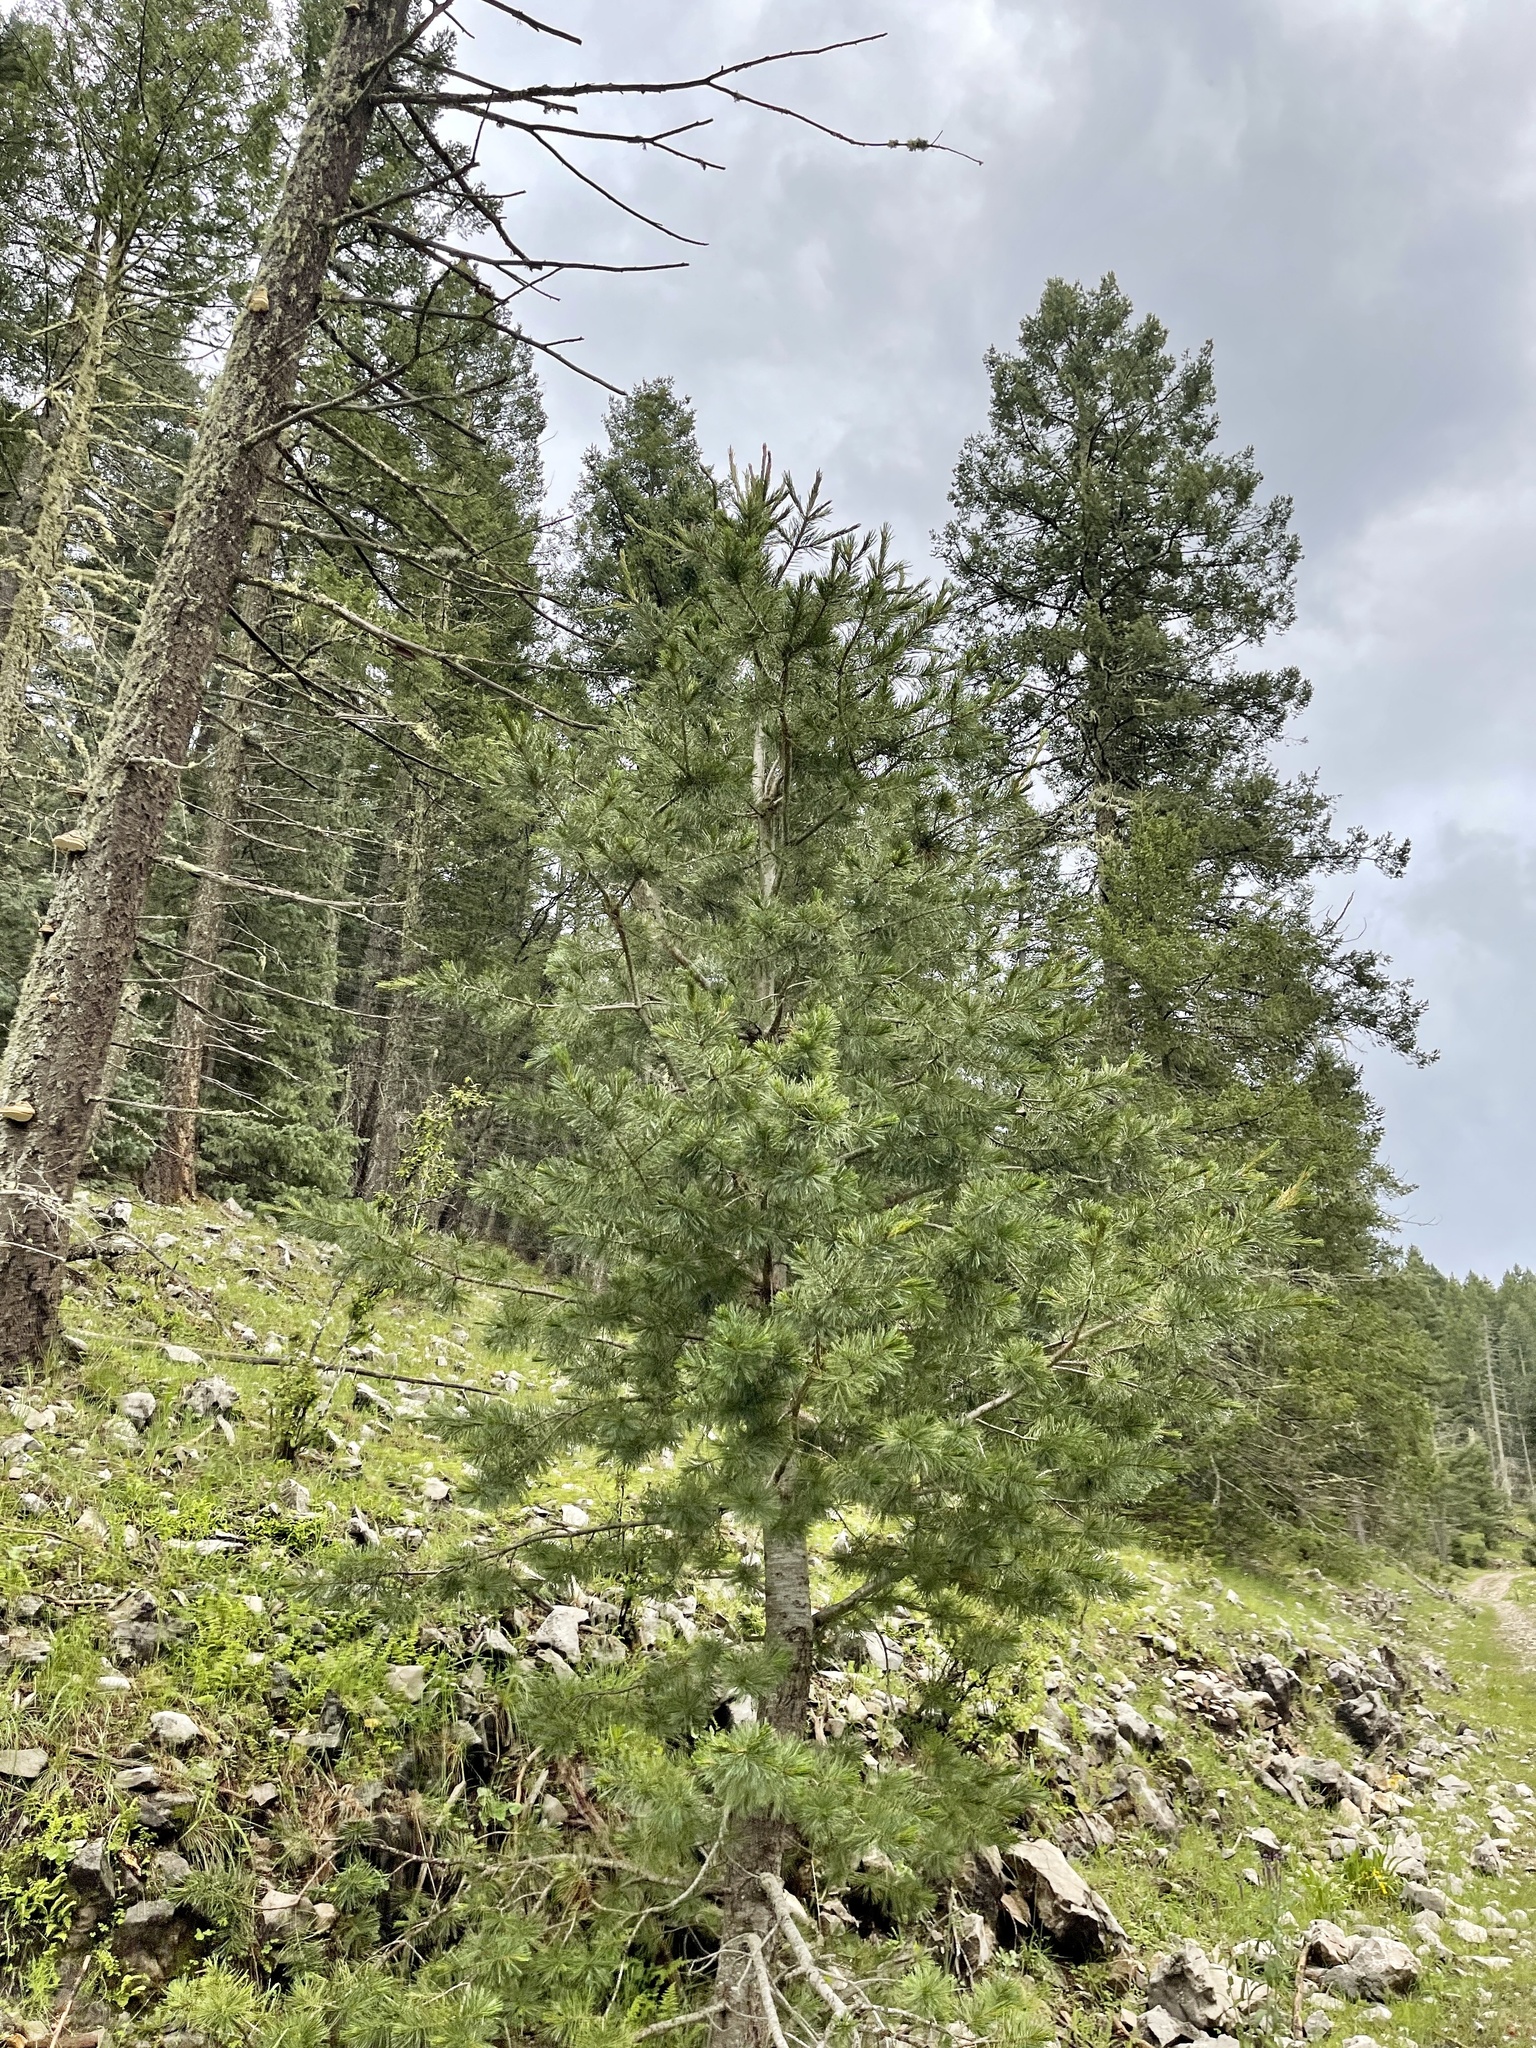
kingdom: Plantae
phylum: Tracheophyta
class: Pinopsida
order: Pinales
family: Pinaceae
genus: Pinus
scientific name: Pinus strobiformis
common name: Southwestern white pine
